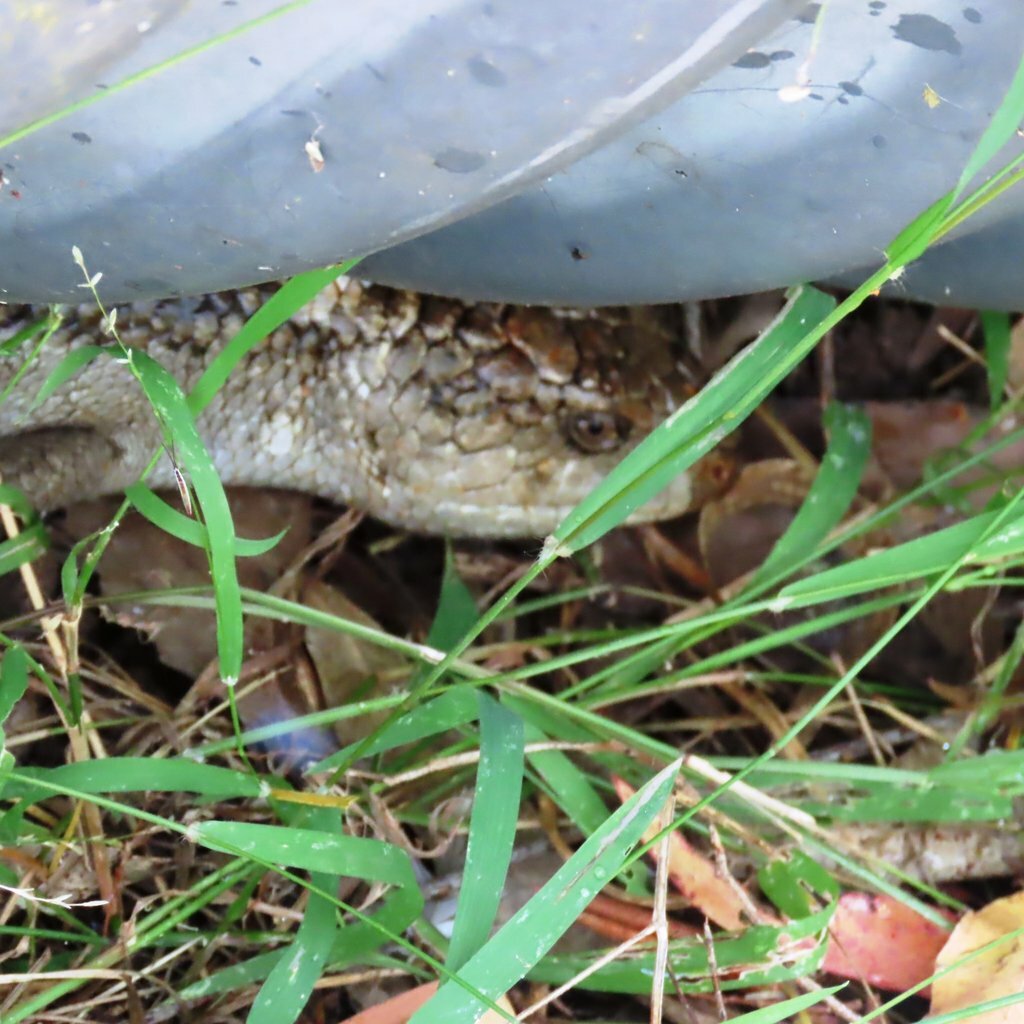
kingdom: Animalia
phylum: Chordata
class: Squamata
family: Scincidae
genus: Tiliqua
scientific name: Tiliqua nigrolutea
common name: Blotched blue-tongued lizard
